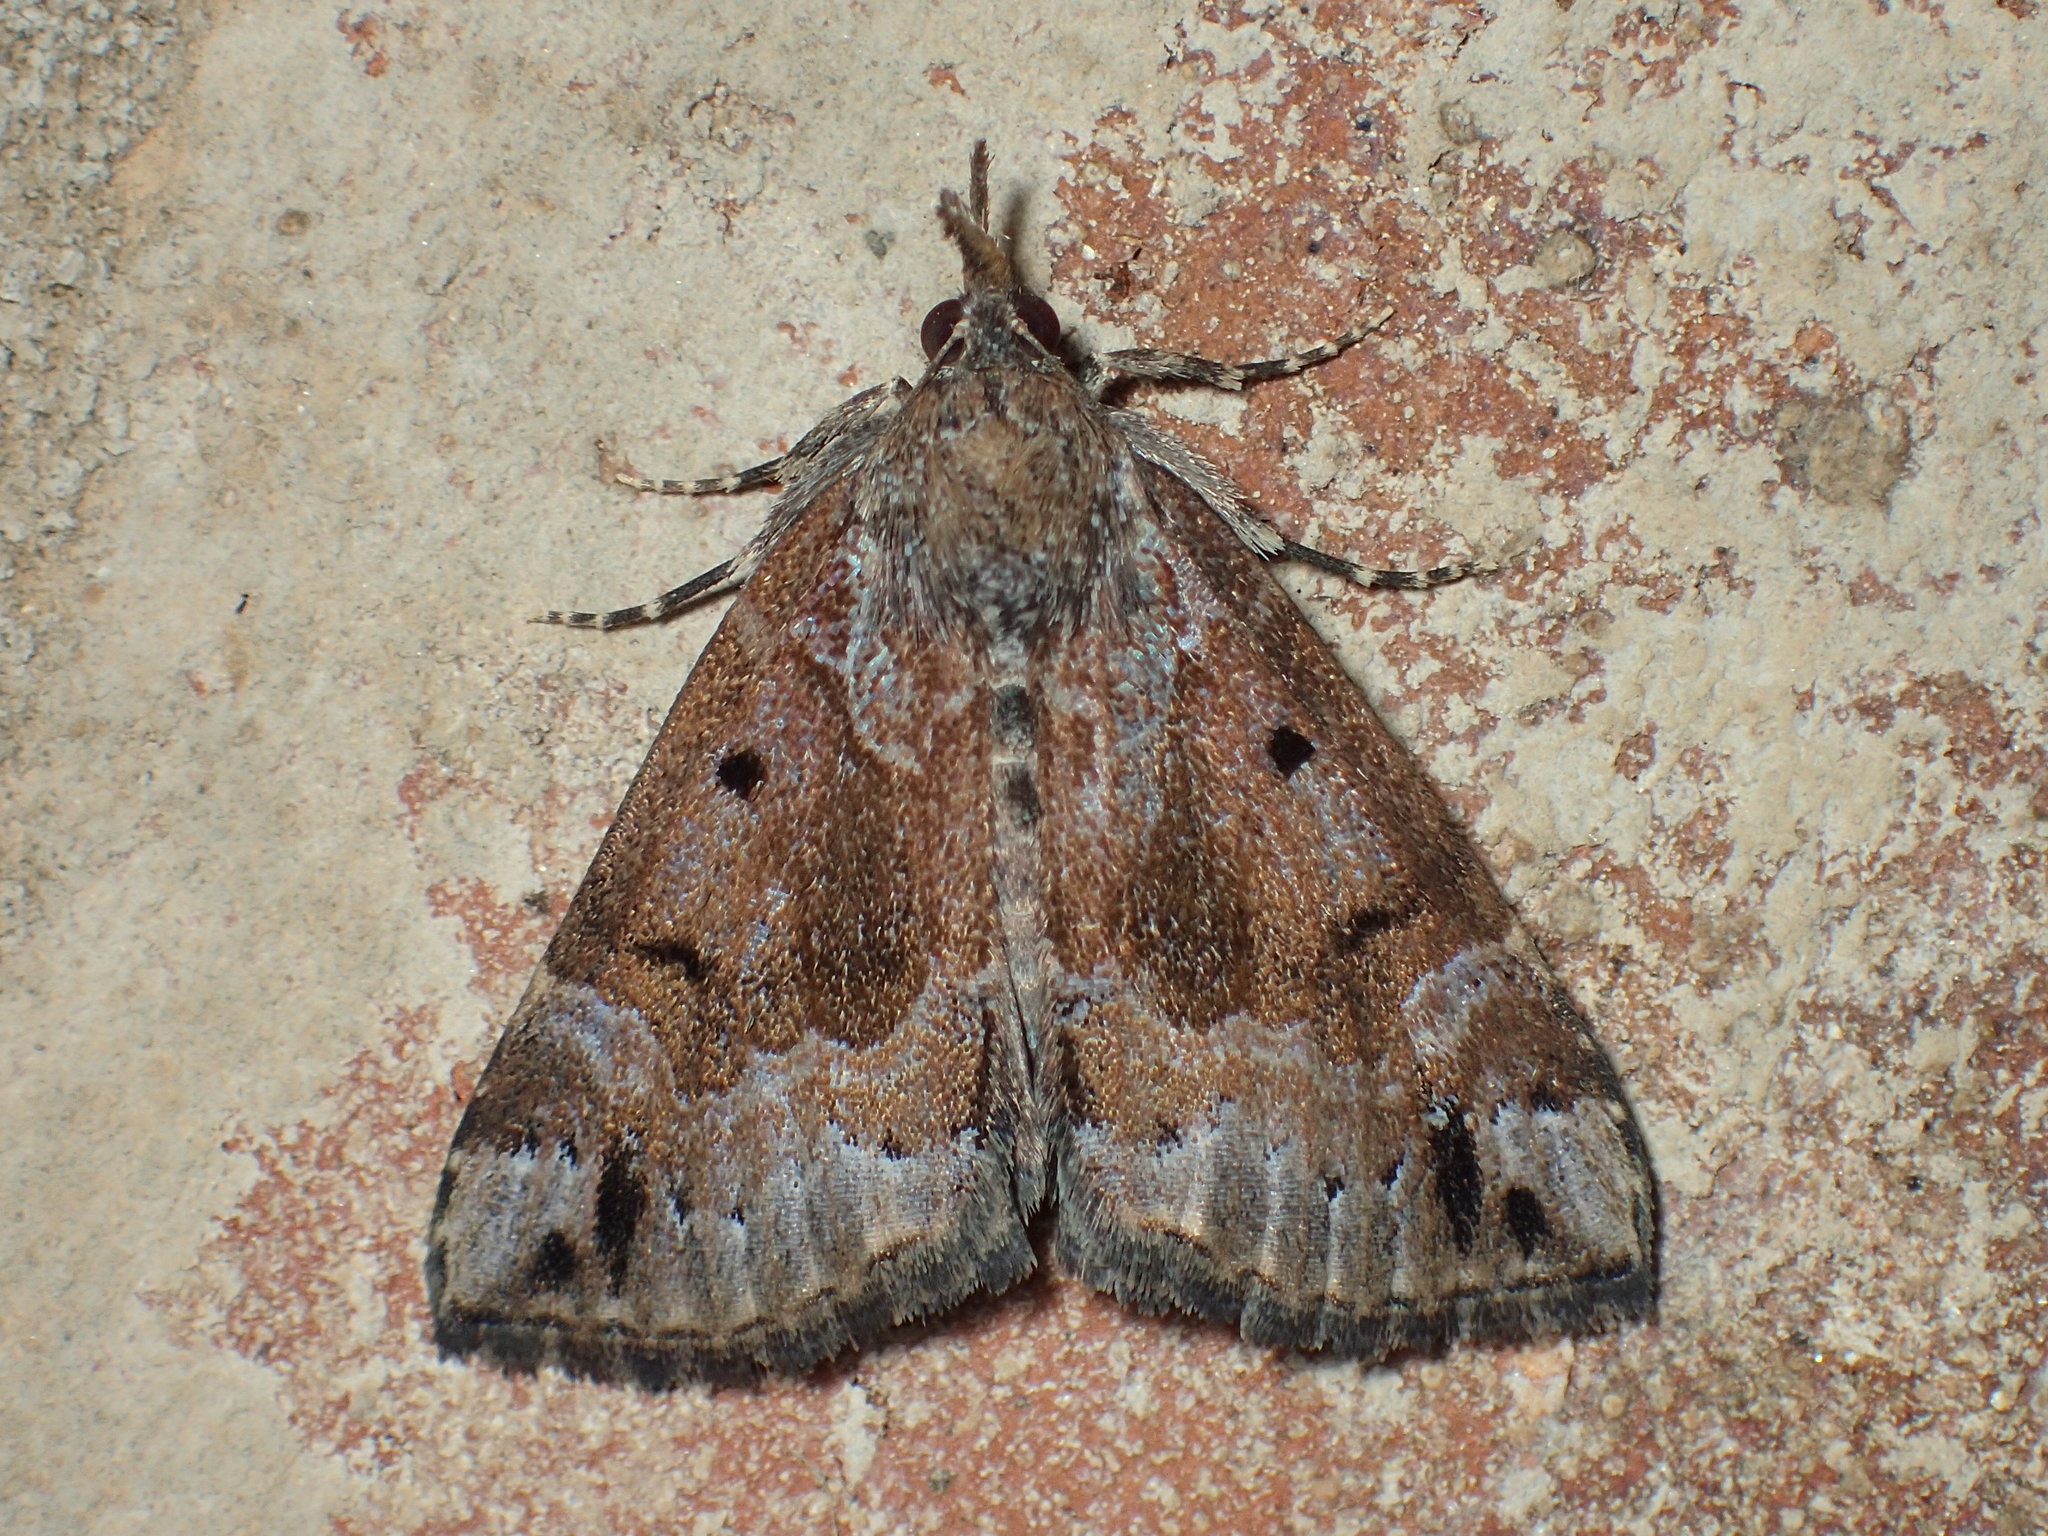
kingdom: Animalia
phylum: Arthropoda
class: Insecta
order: Lepidoptera
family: Erebidae
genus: Hypena
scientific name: Hypena palparia
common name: Mottled bomolocha moth
